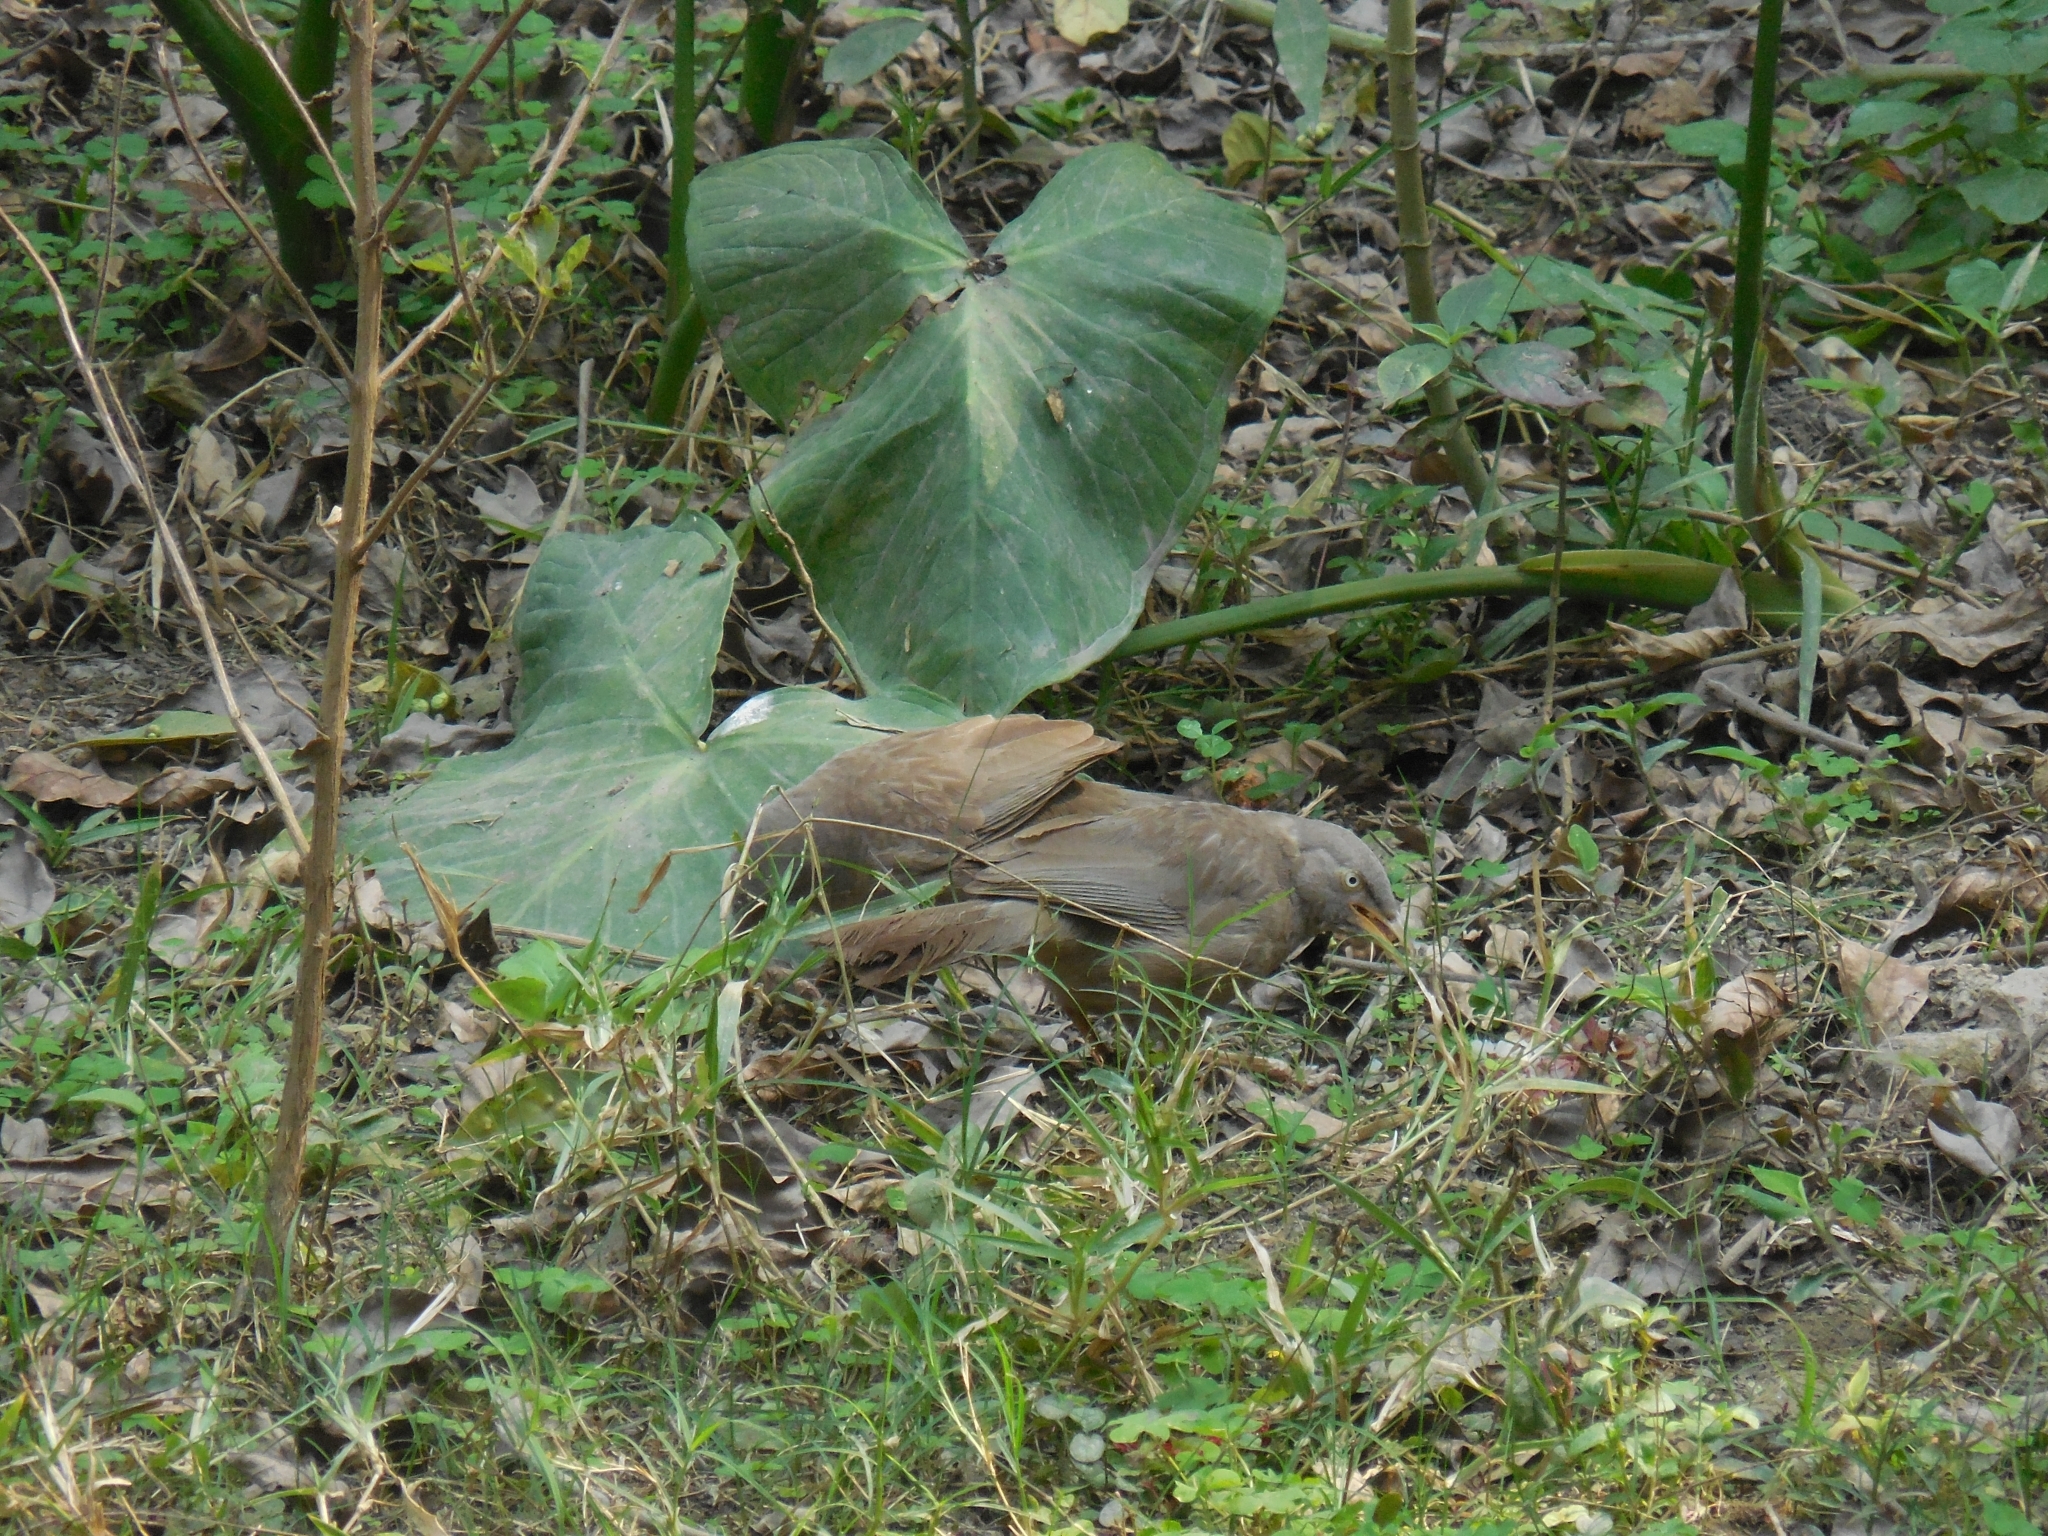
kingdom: Animalia
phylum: Chordata
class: Aves
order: Passeriformes
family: Leiothrichidae
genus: Turdoides
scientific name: Turdoides striata
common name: Jungle babbler
